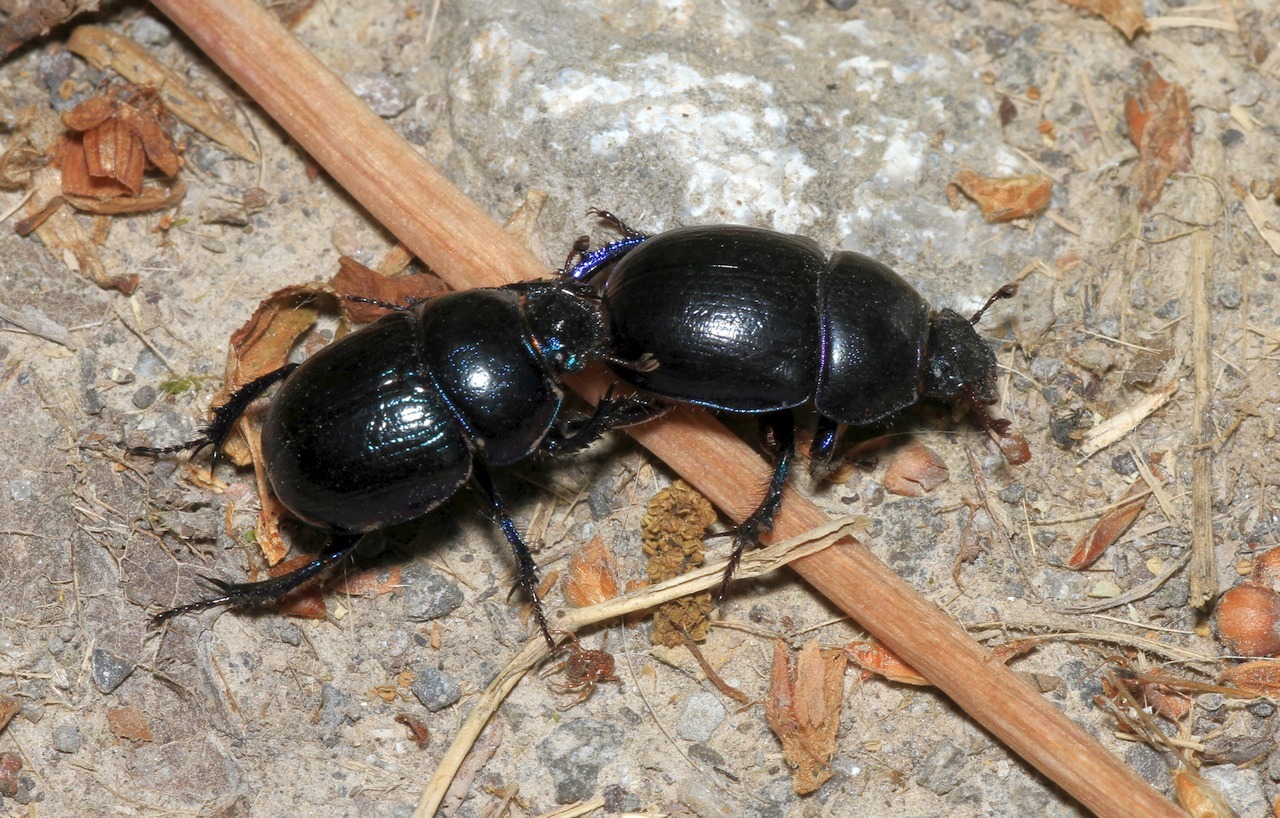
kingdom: Animalia
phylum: Arthropoda
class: Insecta
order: Coleoptera
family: Geotrupidae
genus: Anoplotrupes
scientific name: Anoplotrupes stercorosus
